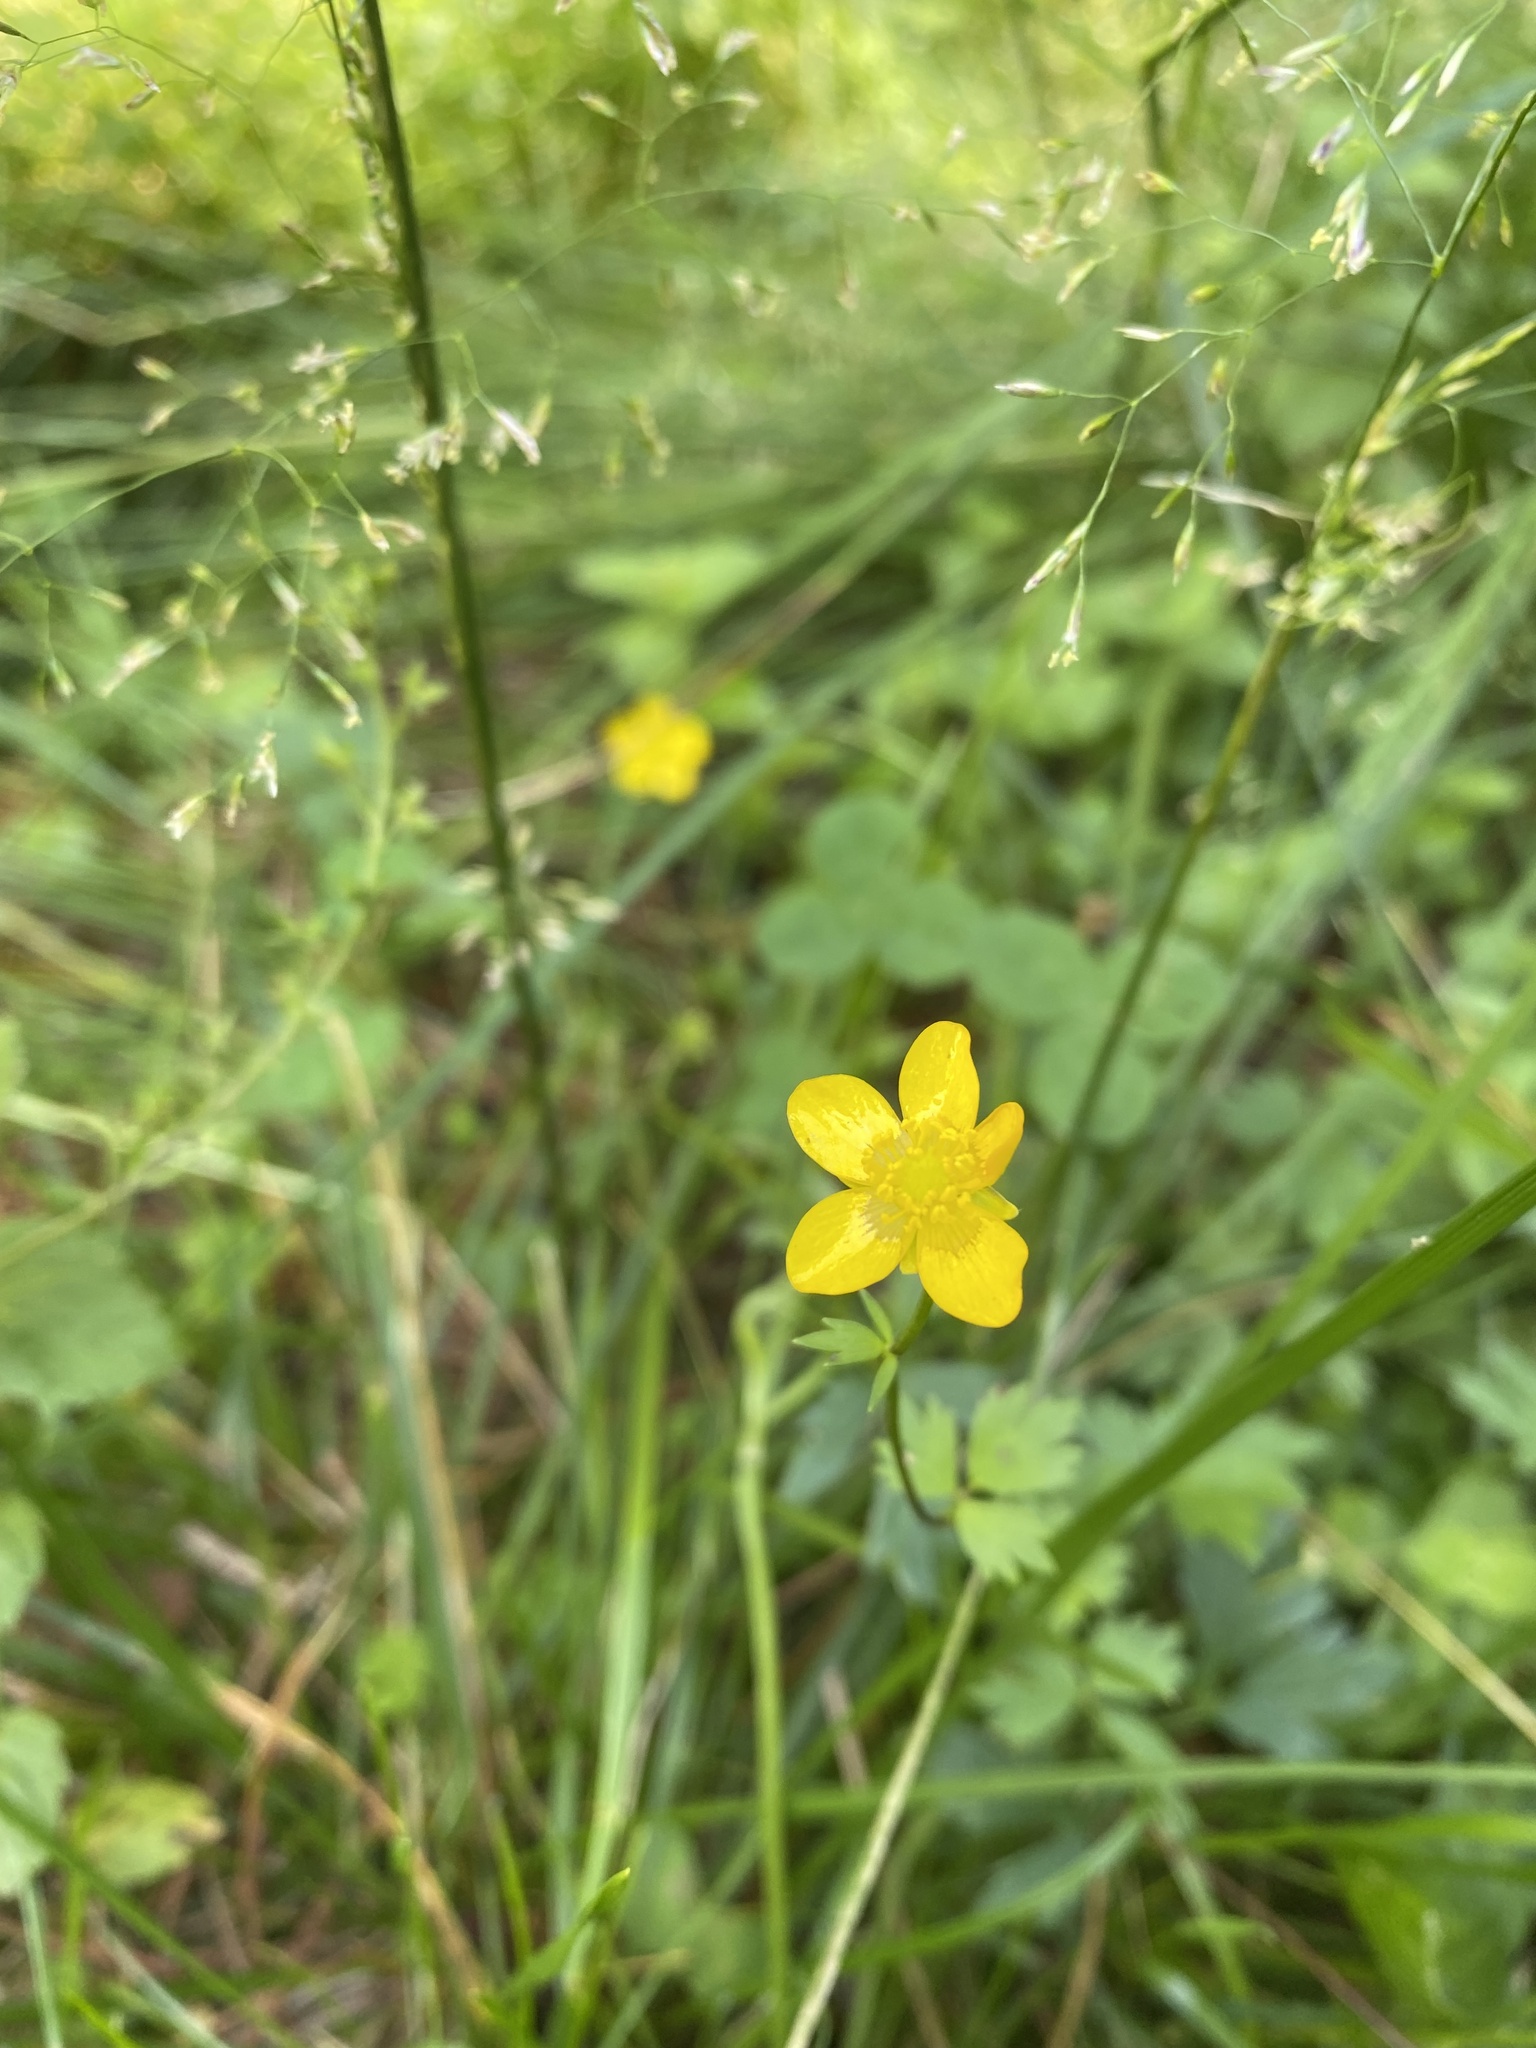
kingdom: Plantae
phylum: Tracheophyta
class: Magnoliopsida
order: Ranunculales
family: Ranunculaceae
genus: Ranunculus
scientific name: Ranunculus repens
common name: Creeping buttercup
